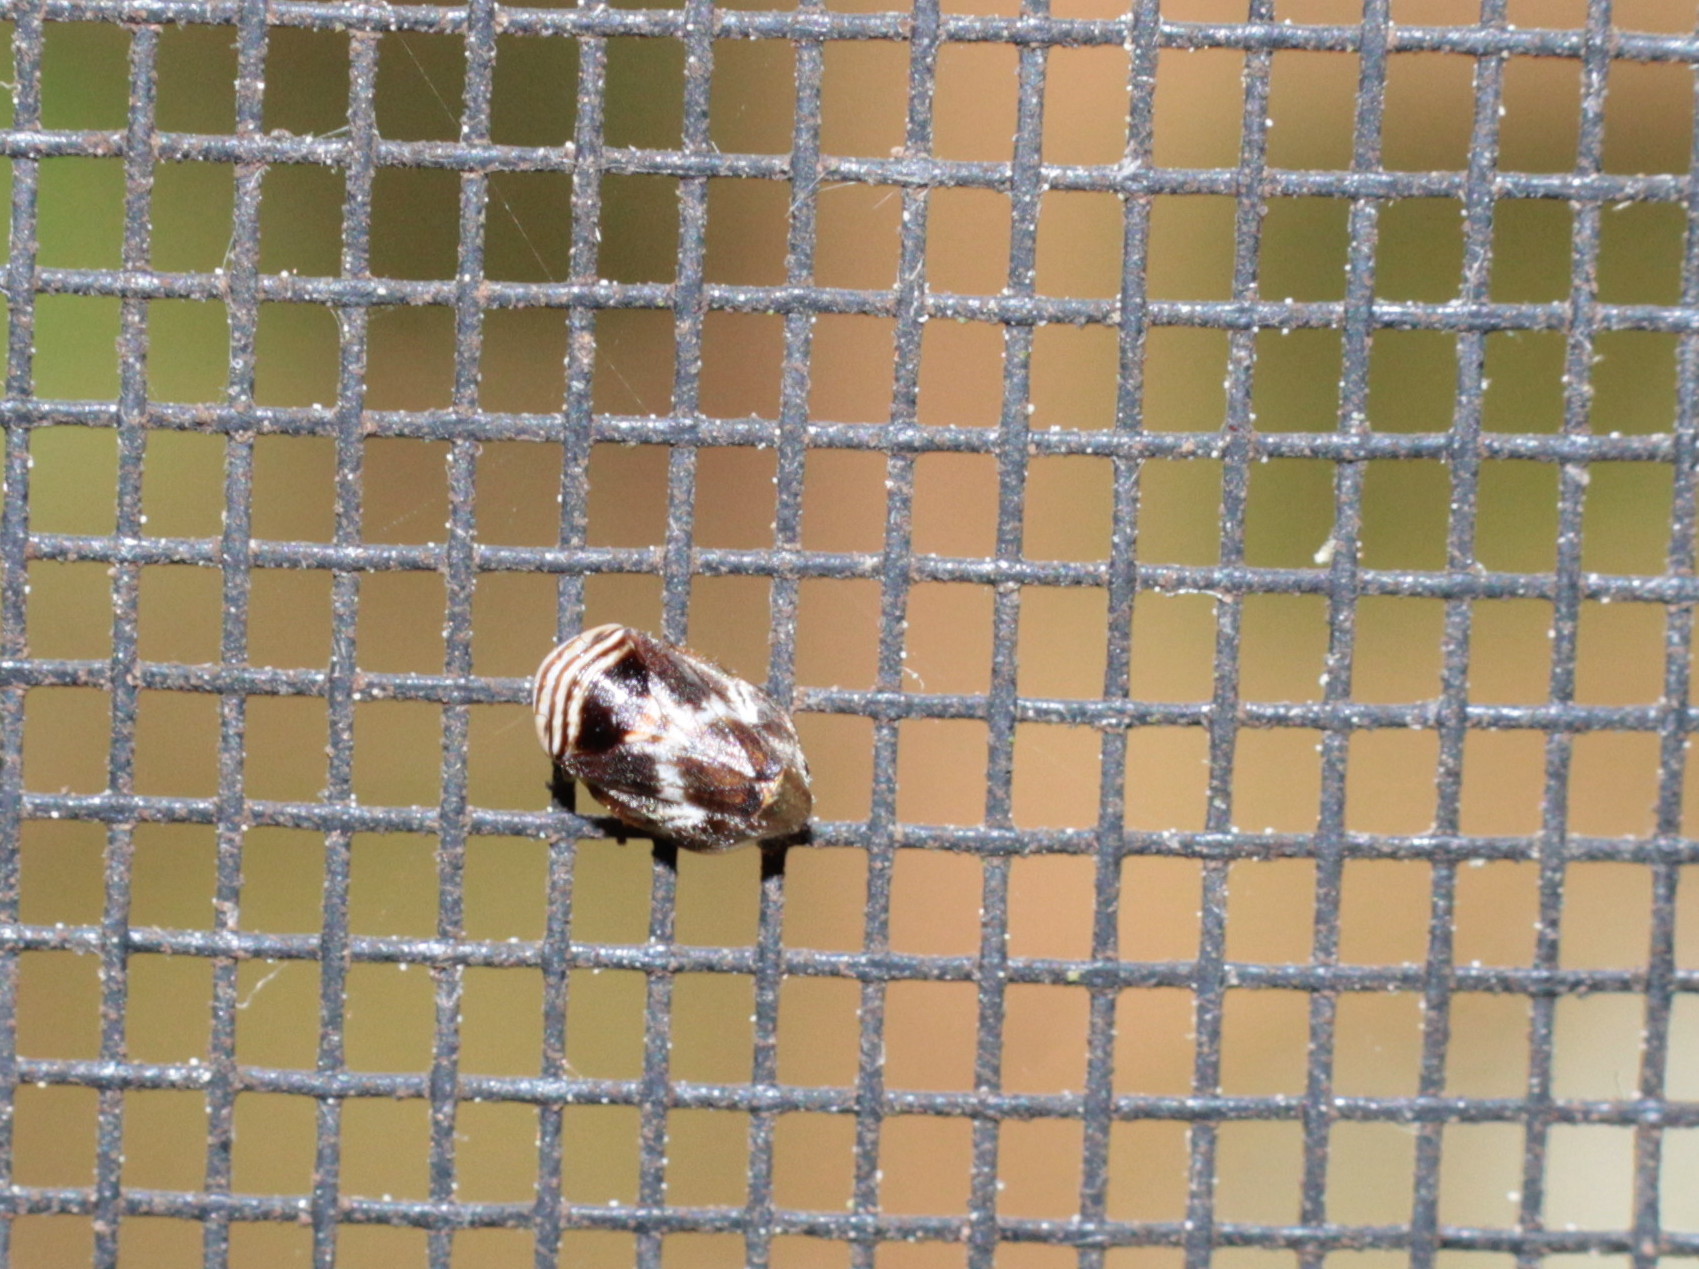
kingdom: Animalia
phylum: Arthropoda
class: Insecta
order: Hemiptera
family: Clastopteridae
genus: Clastoptera
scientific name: Clastoptera obtusa
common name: Alder spittlebug
